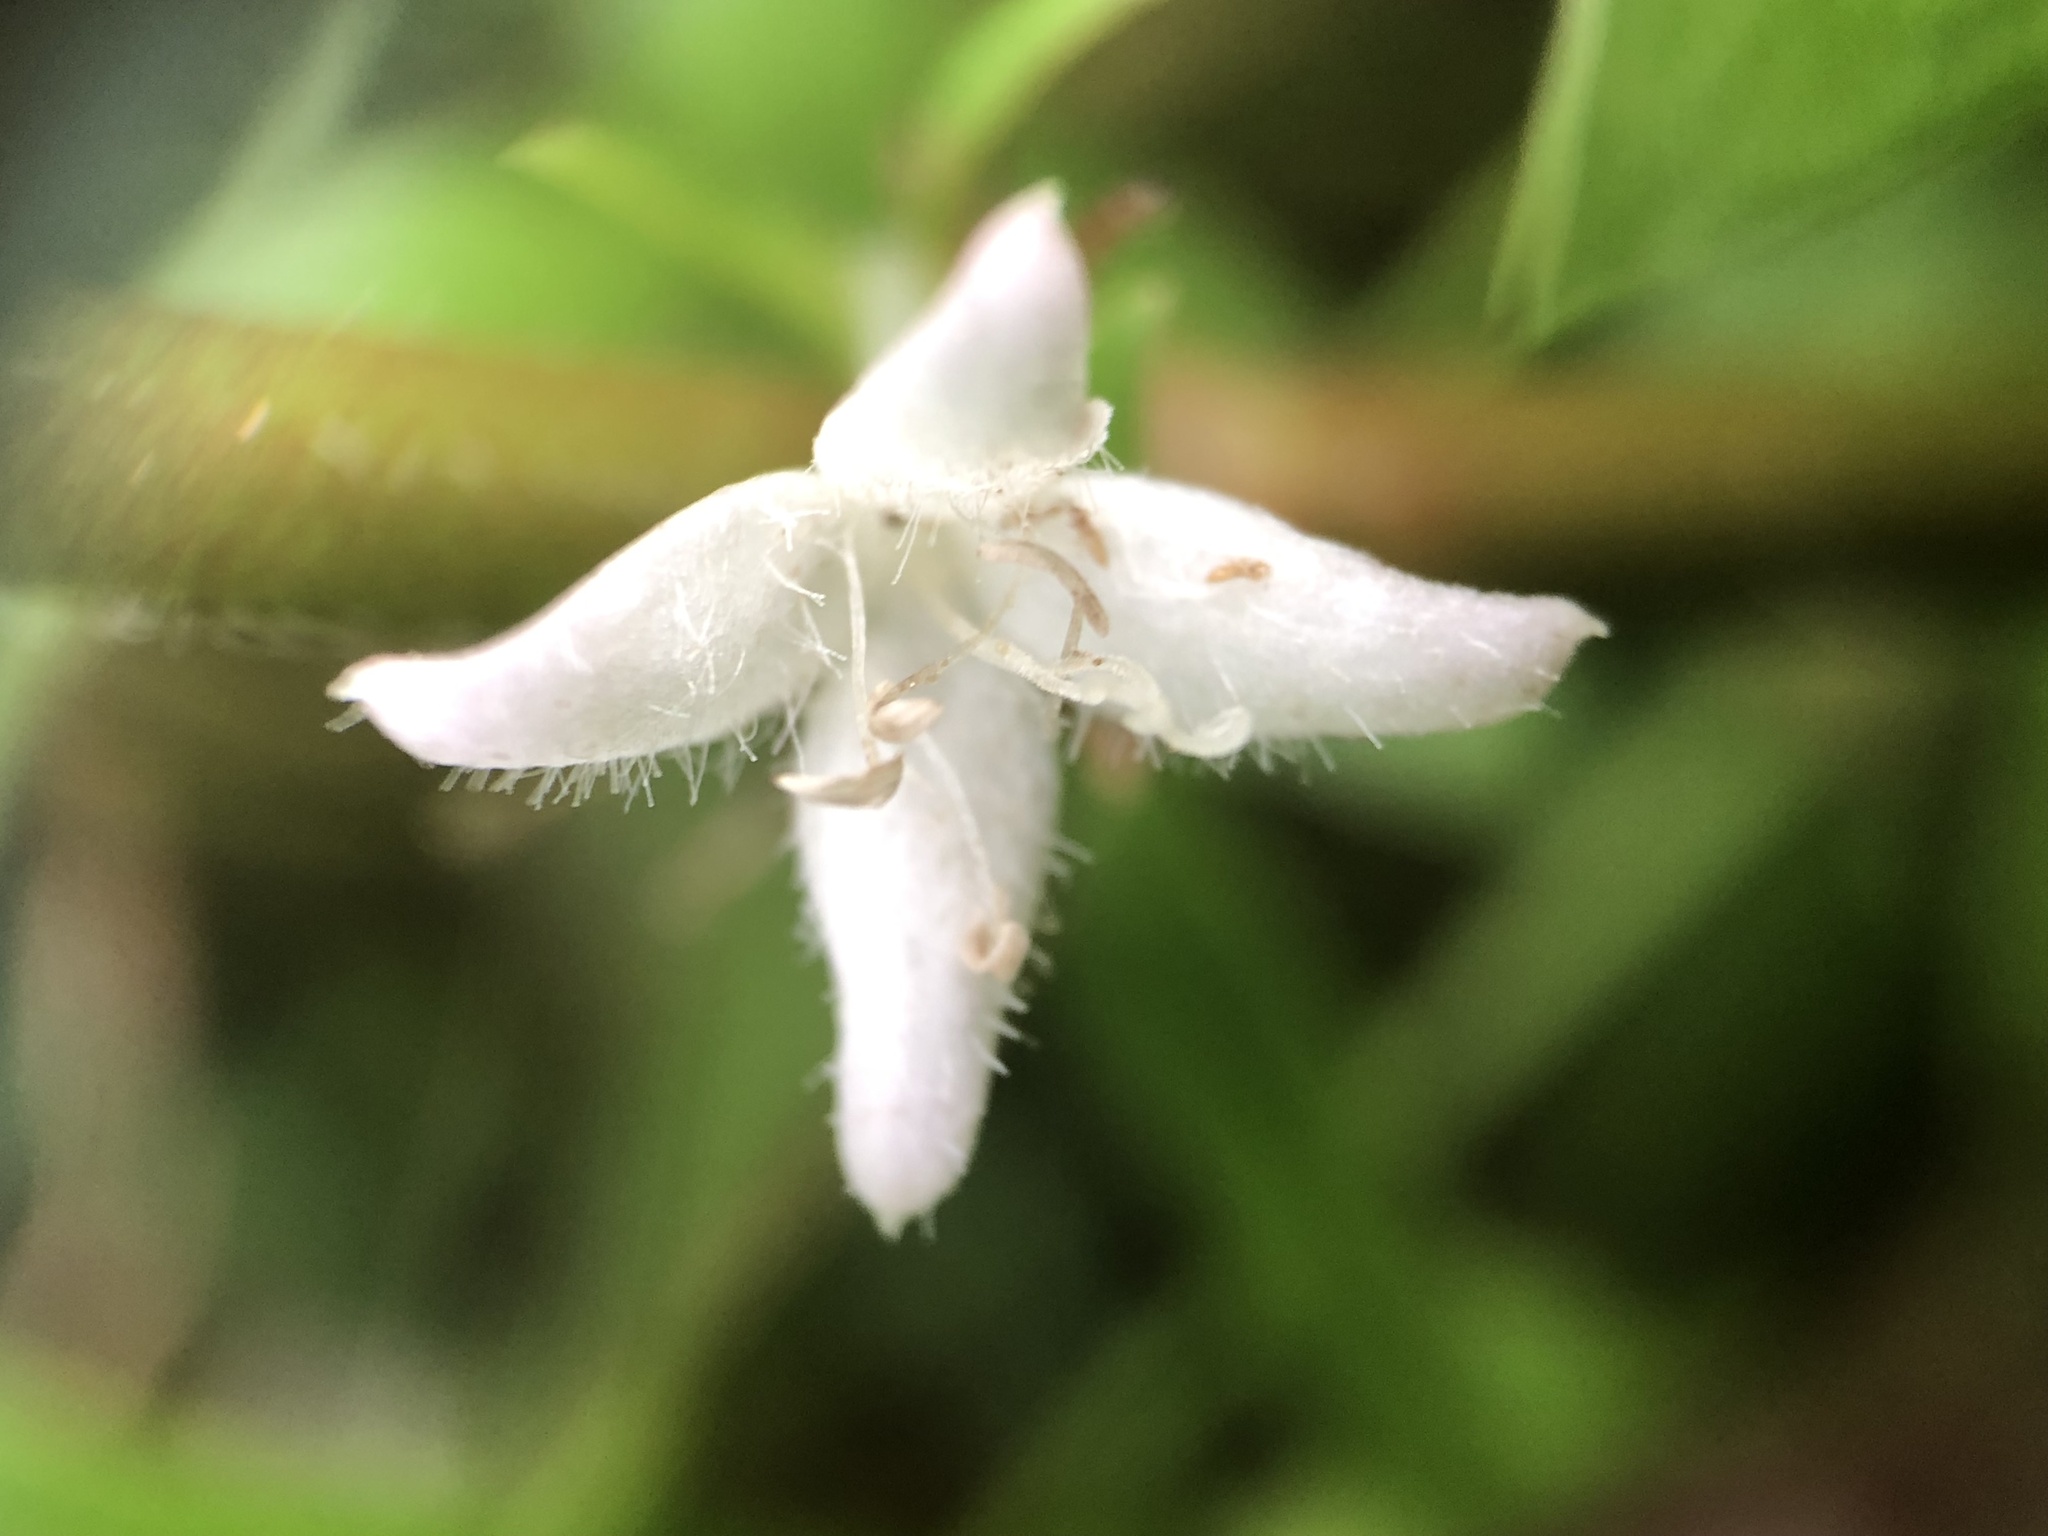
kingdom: Plantae
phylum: Tracheophyta
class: Magnoliopsida
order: Gentianales
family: Rubiaceae
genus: Diodia
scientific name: Diodia virginiana
